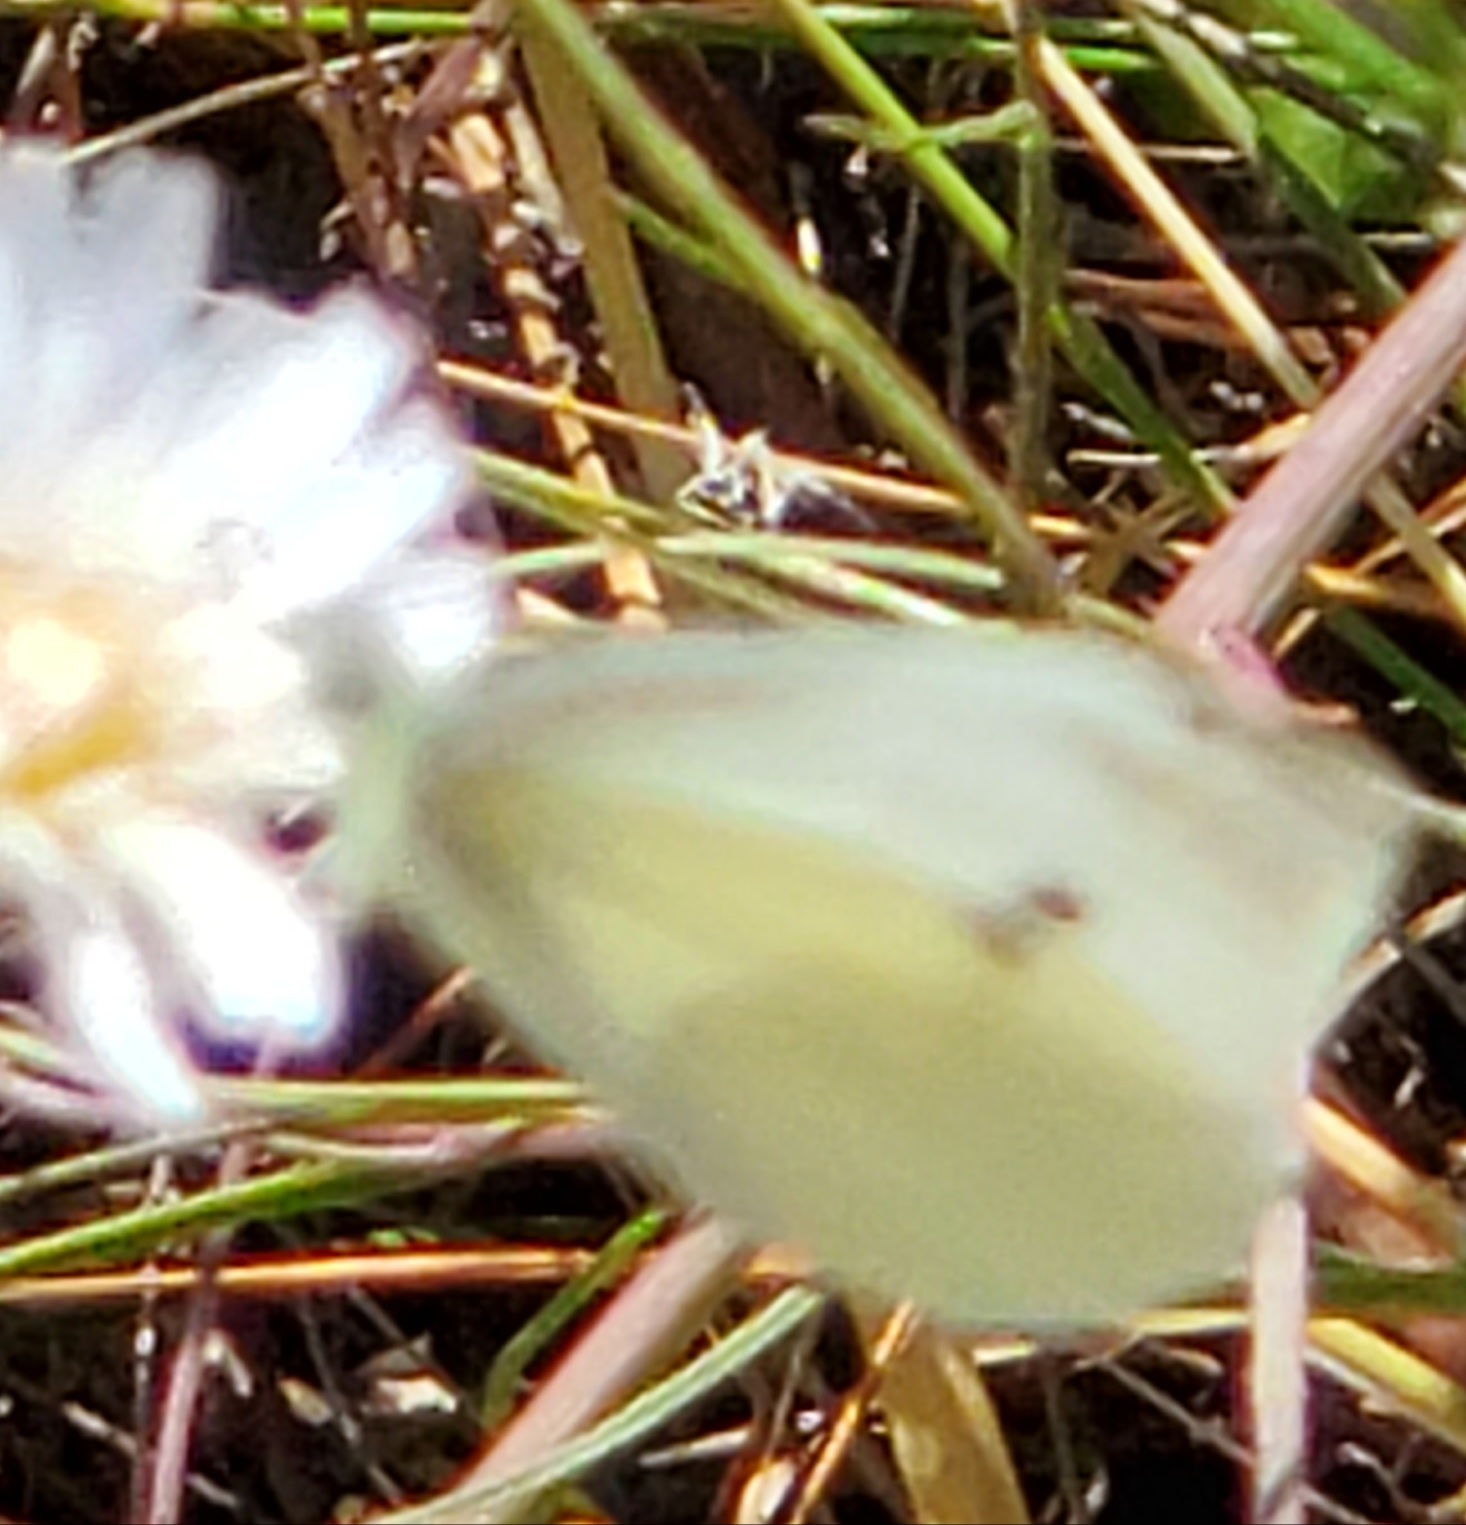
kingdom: Animalia
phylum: Arthropoda
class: Insecta
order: Lepidoptera
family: Pieridae
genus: Pieris
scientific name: Pieris rapae
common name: Small white
